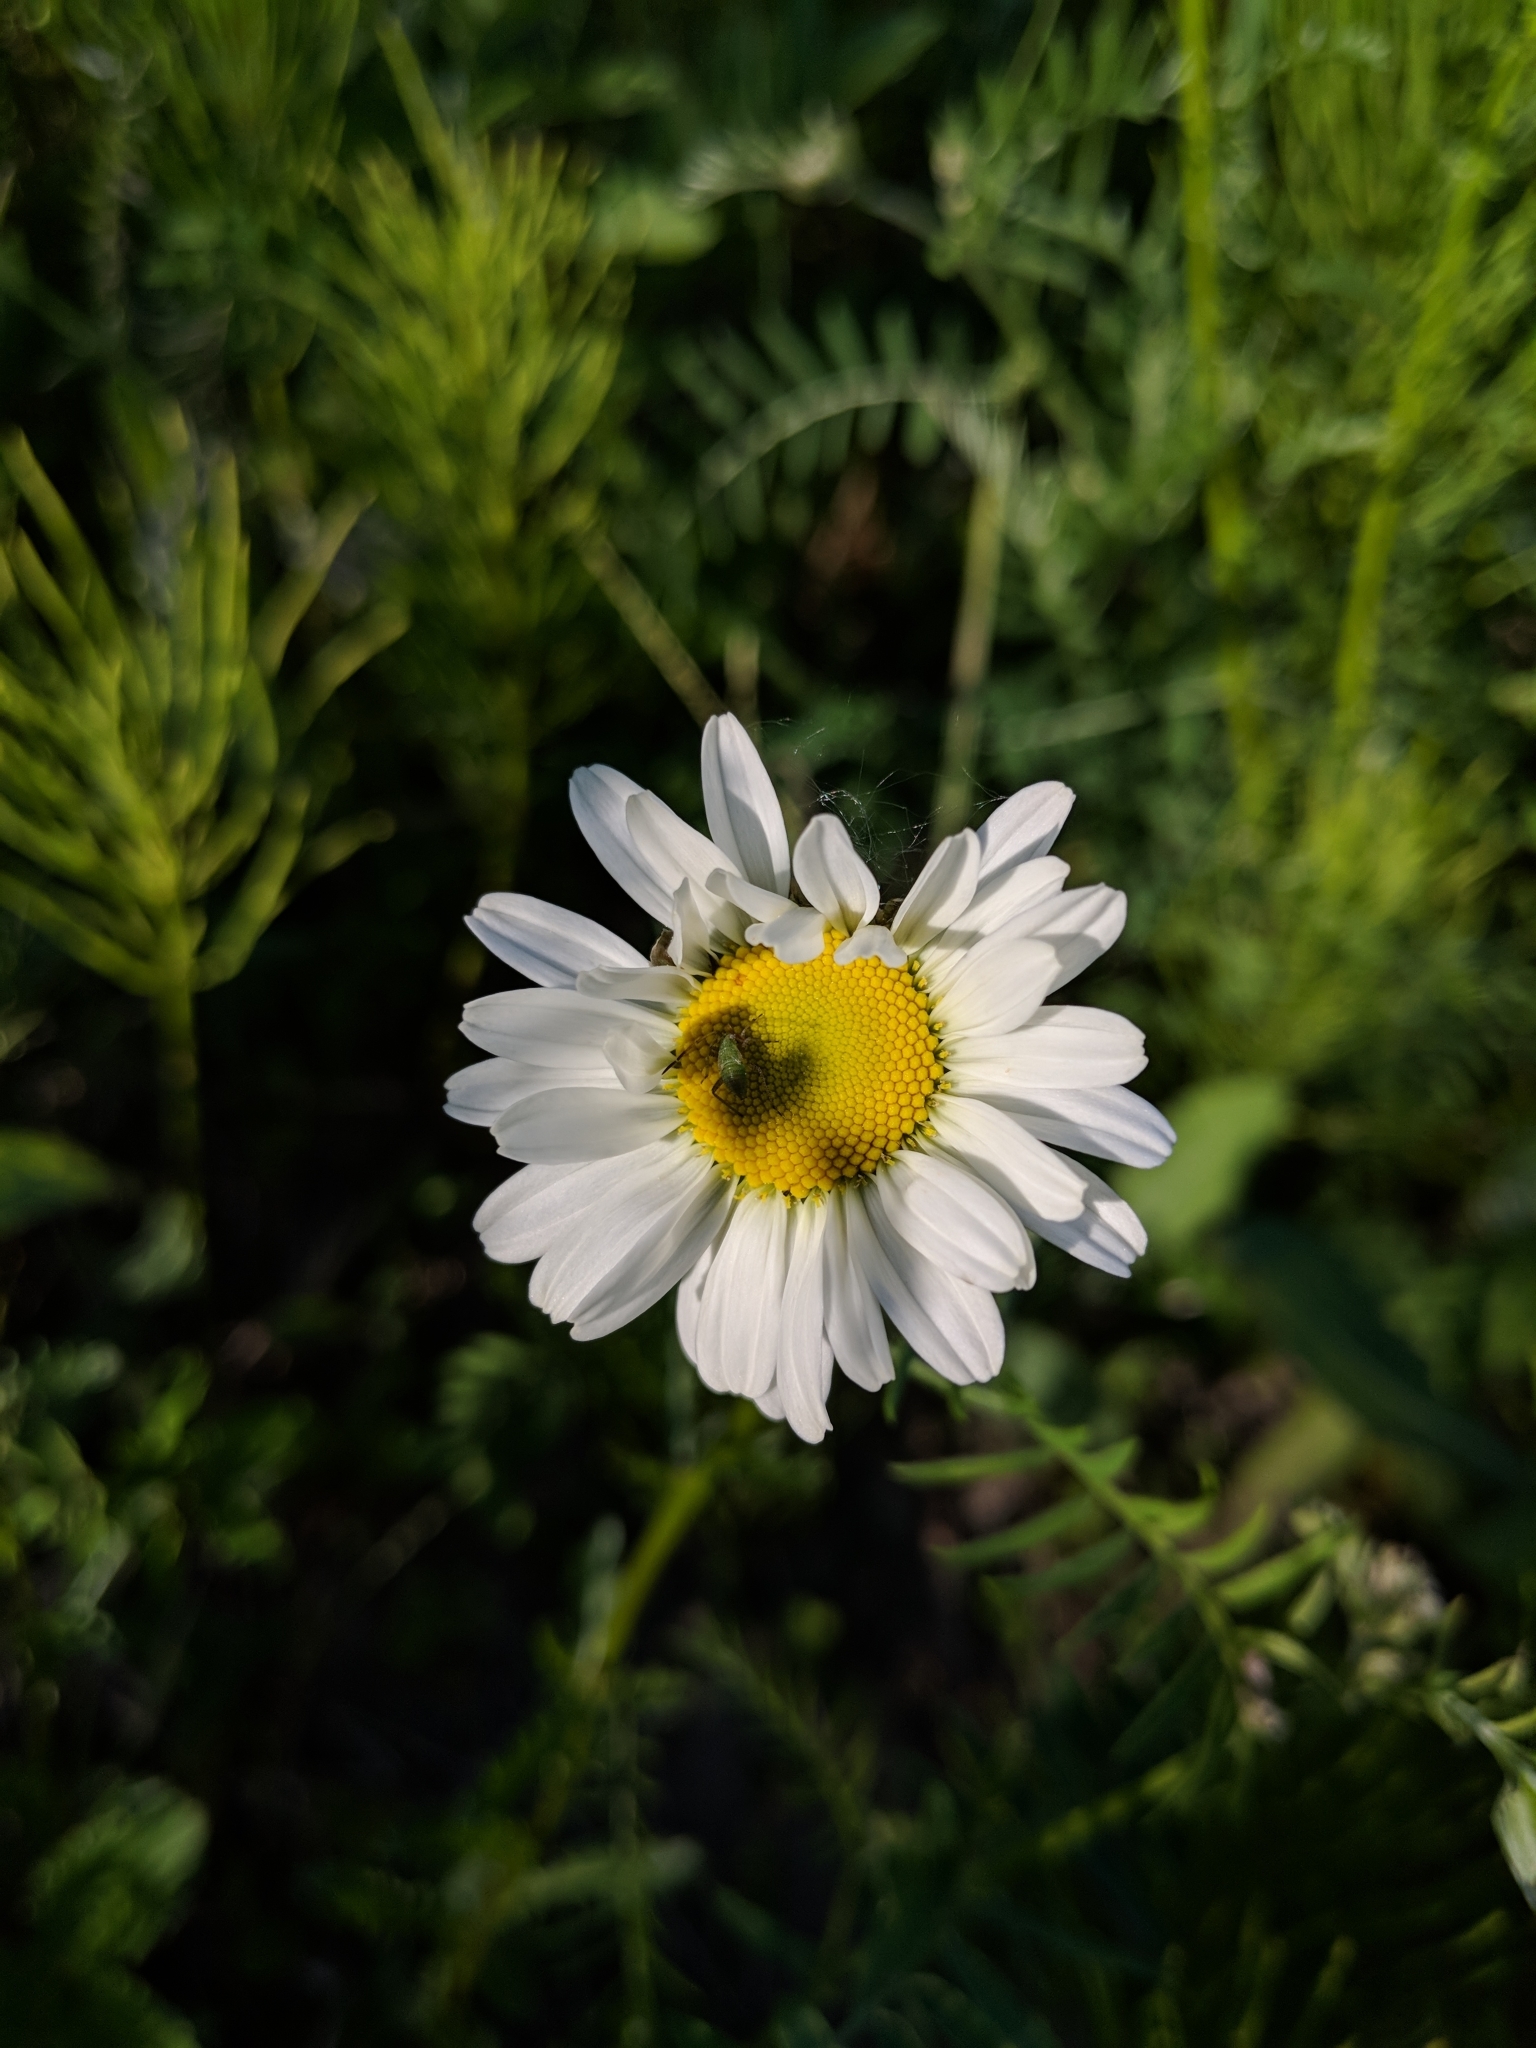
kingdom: Plantae
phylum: Tracheophyta
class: Magnoliopsida
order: Asterales
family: Asteraceae
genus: Leucanthemum
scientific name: Leucanthemum vulgare
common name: Oxeye daisy
